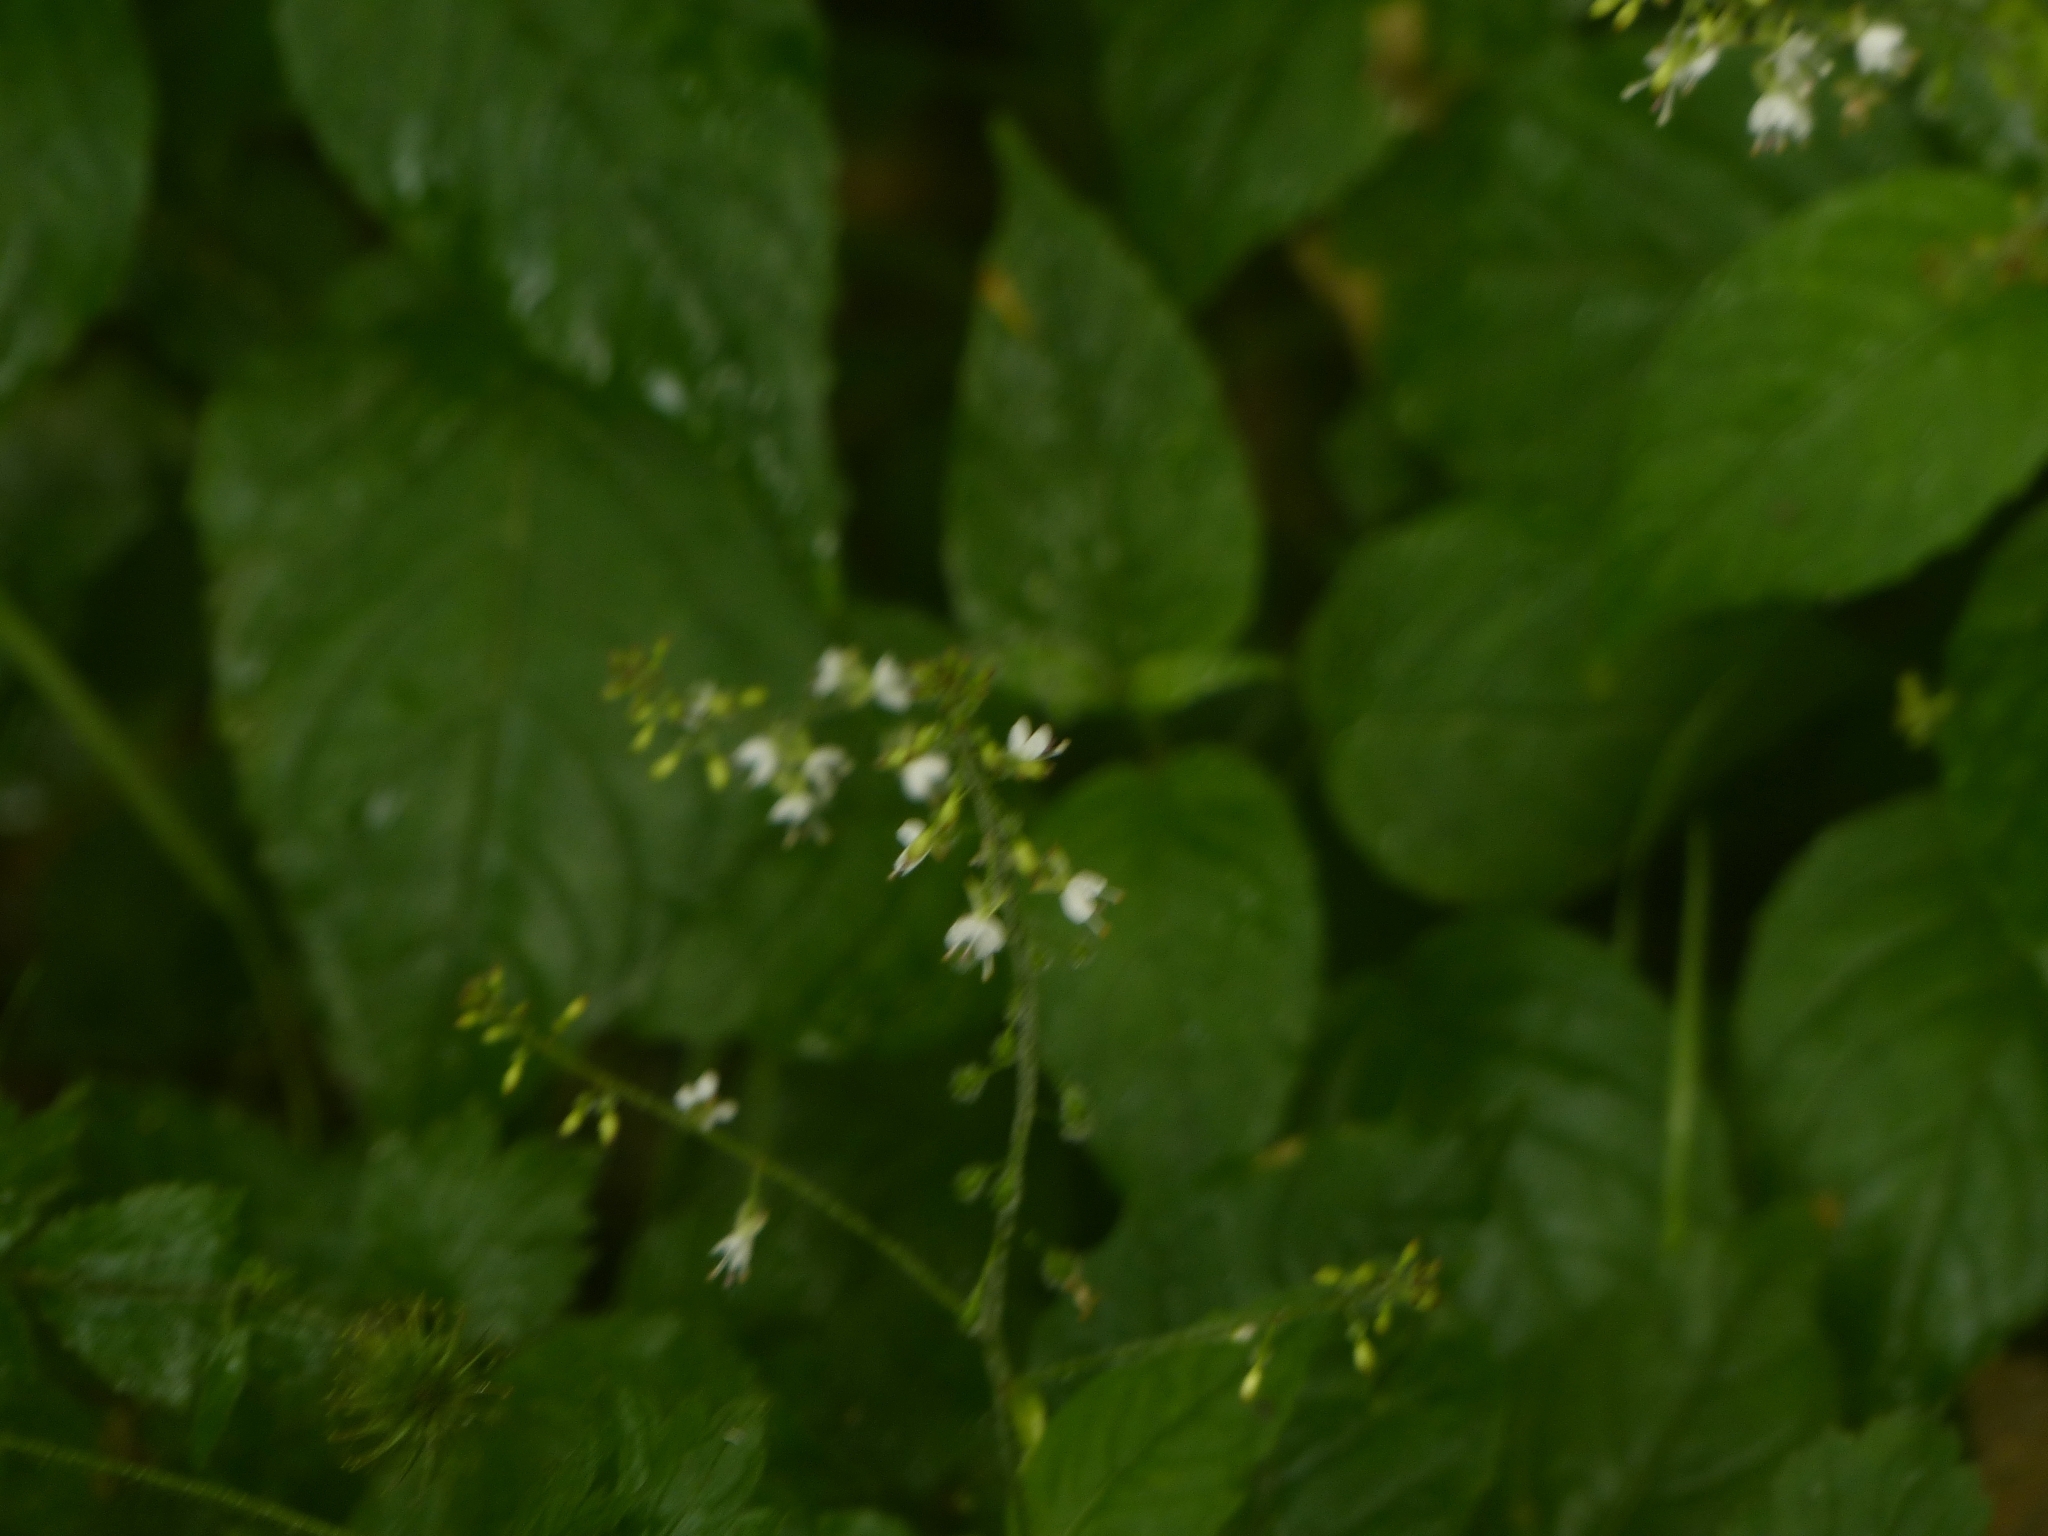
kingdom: Plantae
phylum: Tracheophyta
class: Magnoliopsida
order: Myrtales
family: Onagraceae
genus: Circaea
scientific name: Circaea lutetiana
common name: Enchanter's-nightshade
